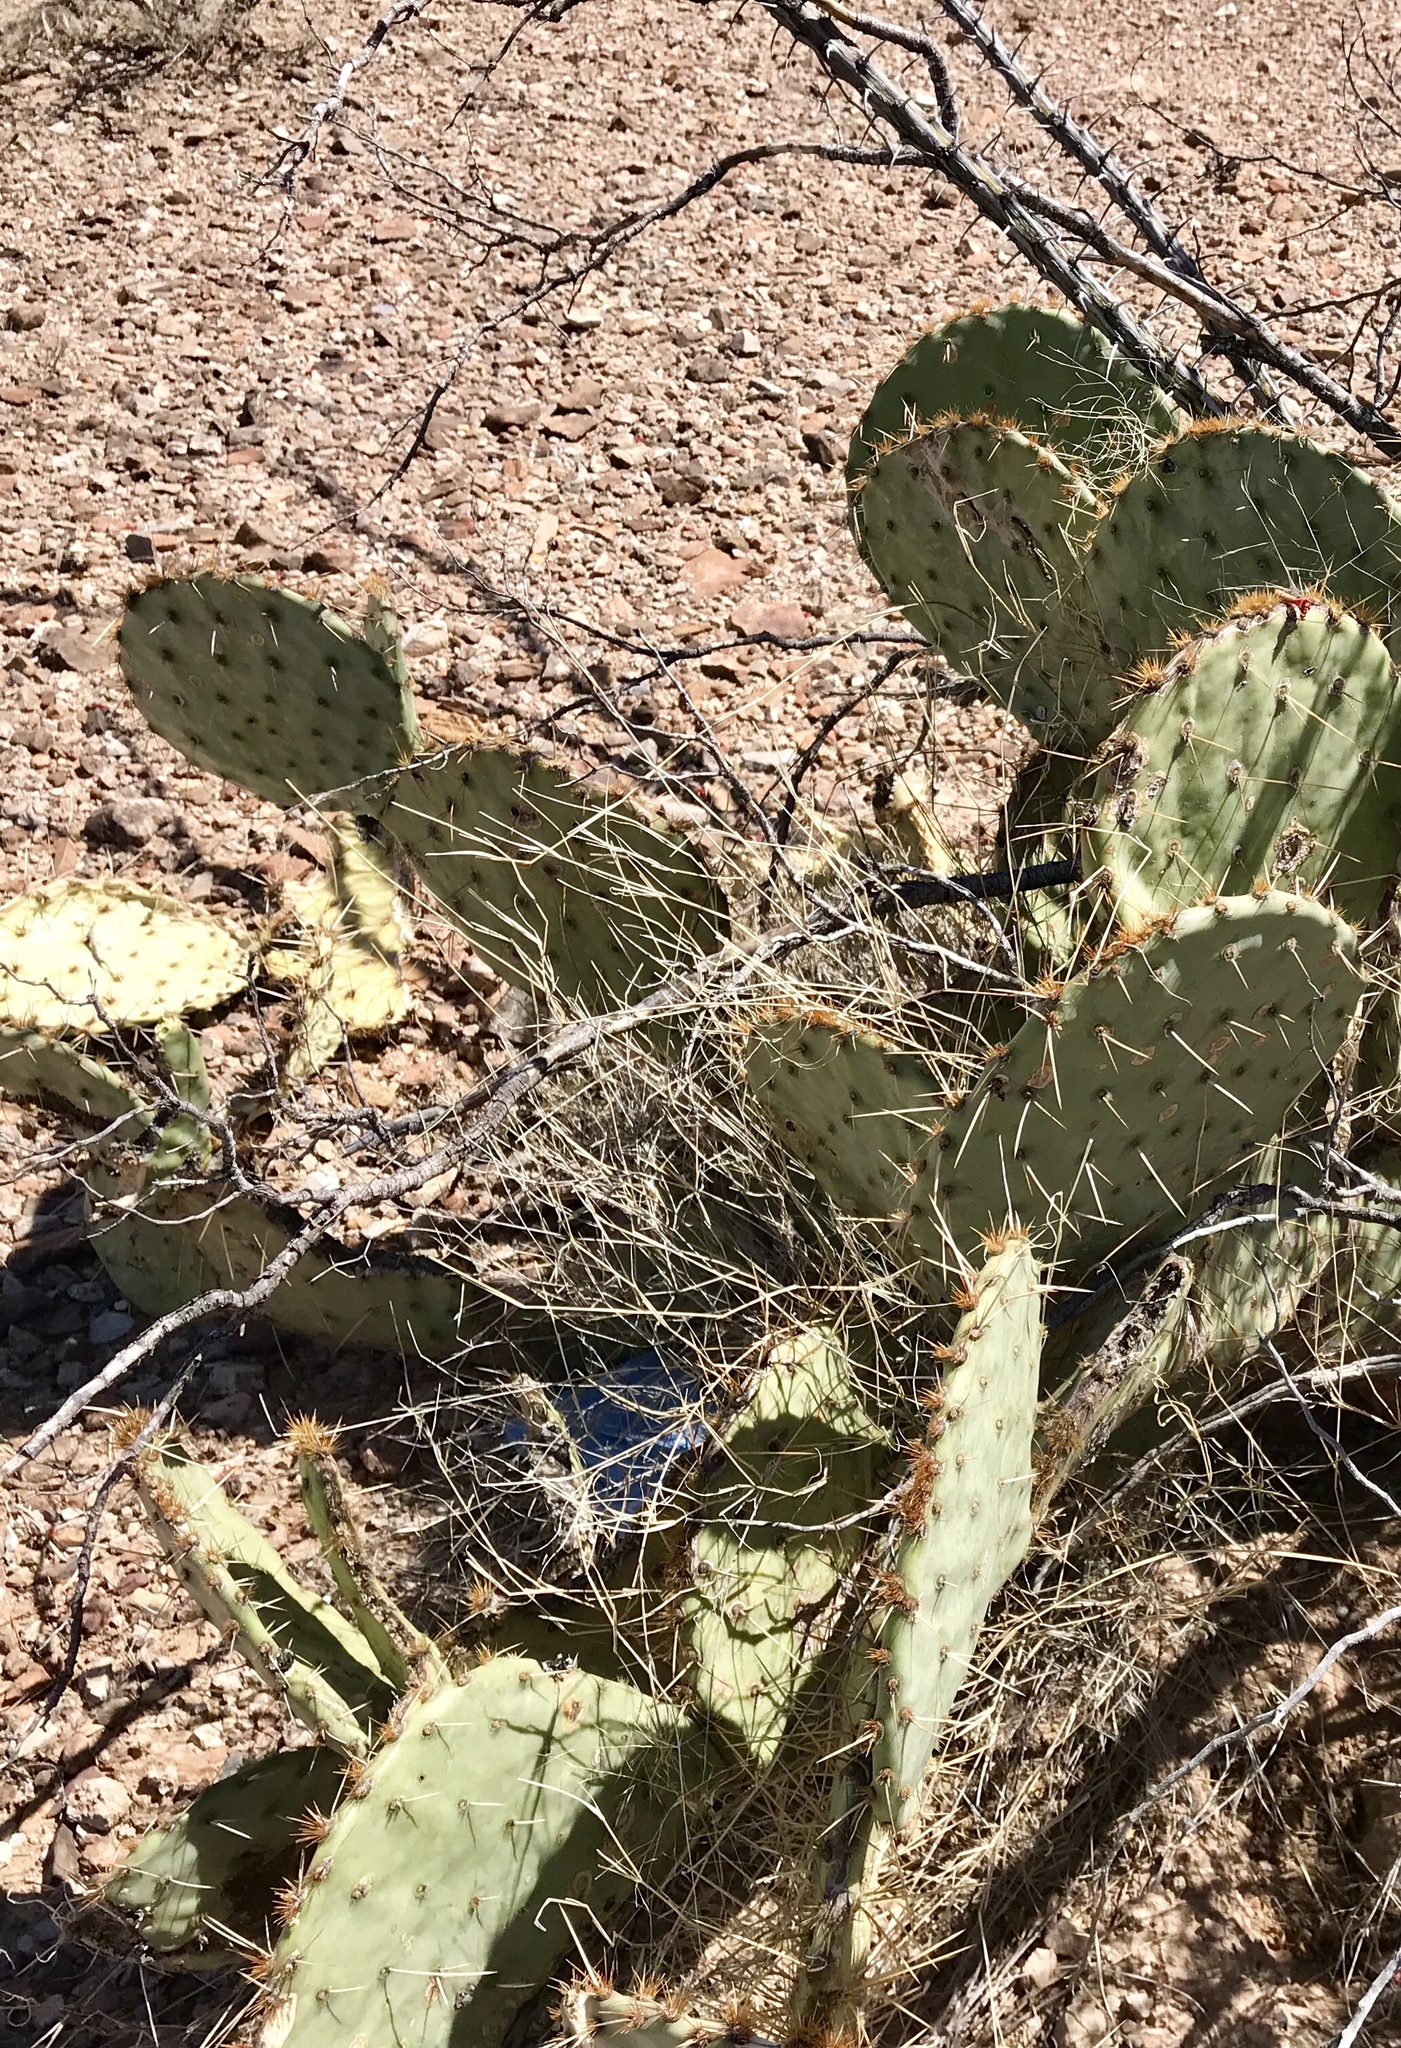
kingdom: Plantae
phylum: Tracheophyta
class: Magnoliopsida
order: Caryophyllales
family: Cactaceae
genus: Opuntia
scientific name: Opuntia orbiculata
